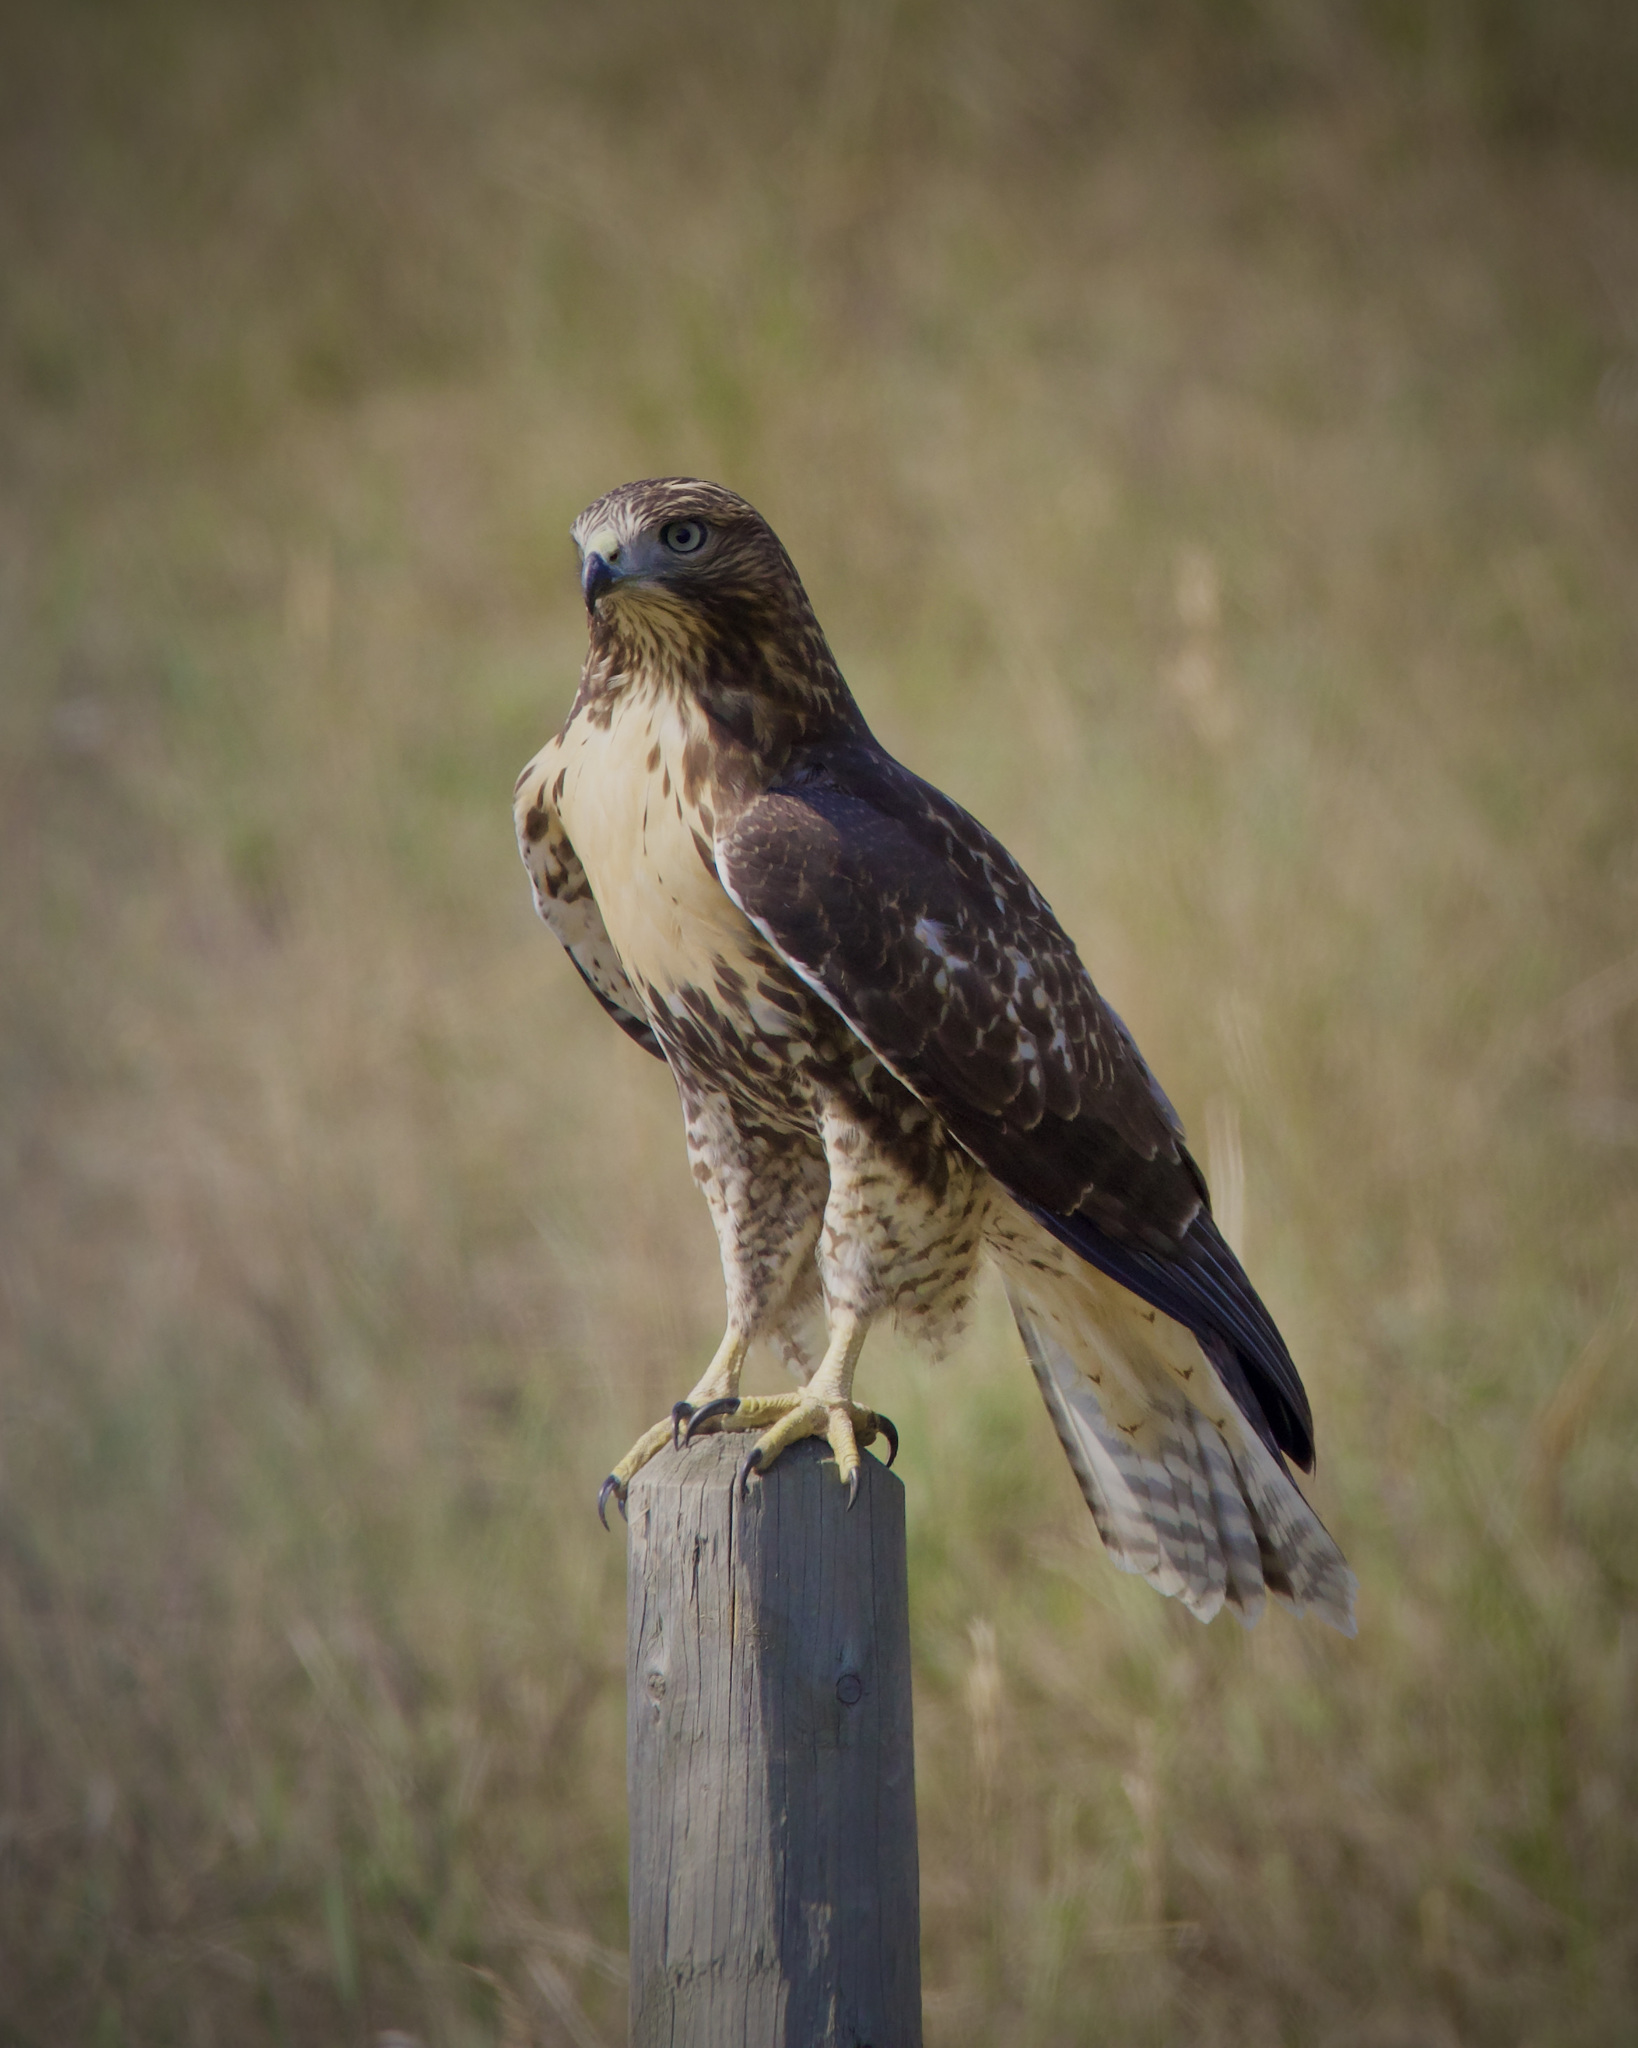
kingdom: Animalia
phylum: Chordata
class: Aves
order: Accipitriformes
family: Accipitridae
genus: Buteo
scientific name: Buteo jamaicensis
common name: Red-tailed hawk
